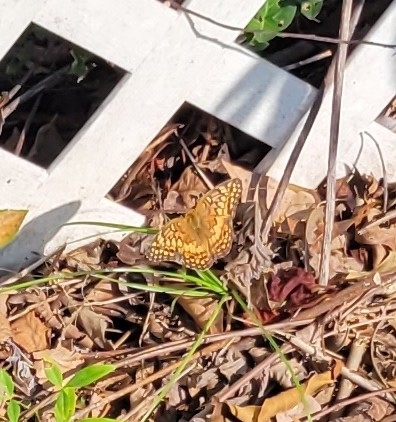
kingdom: Animalia
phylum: Arthropoda
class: Insecta
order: Lepidoptera
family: Nymphalidae
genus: Euptoieta
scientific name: Euptoieta claudia
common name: Variegated fritillary
